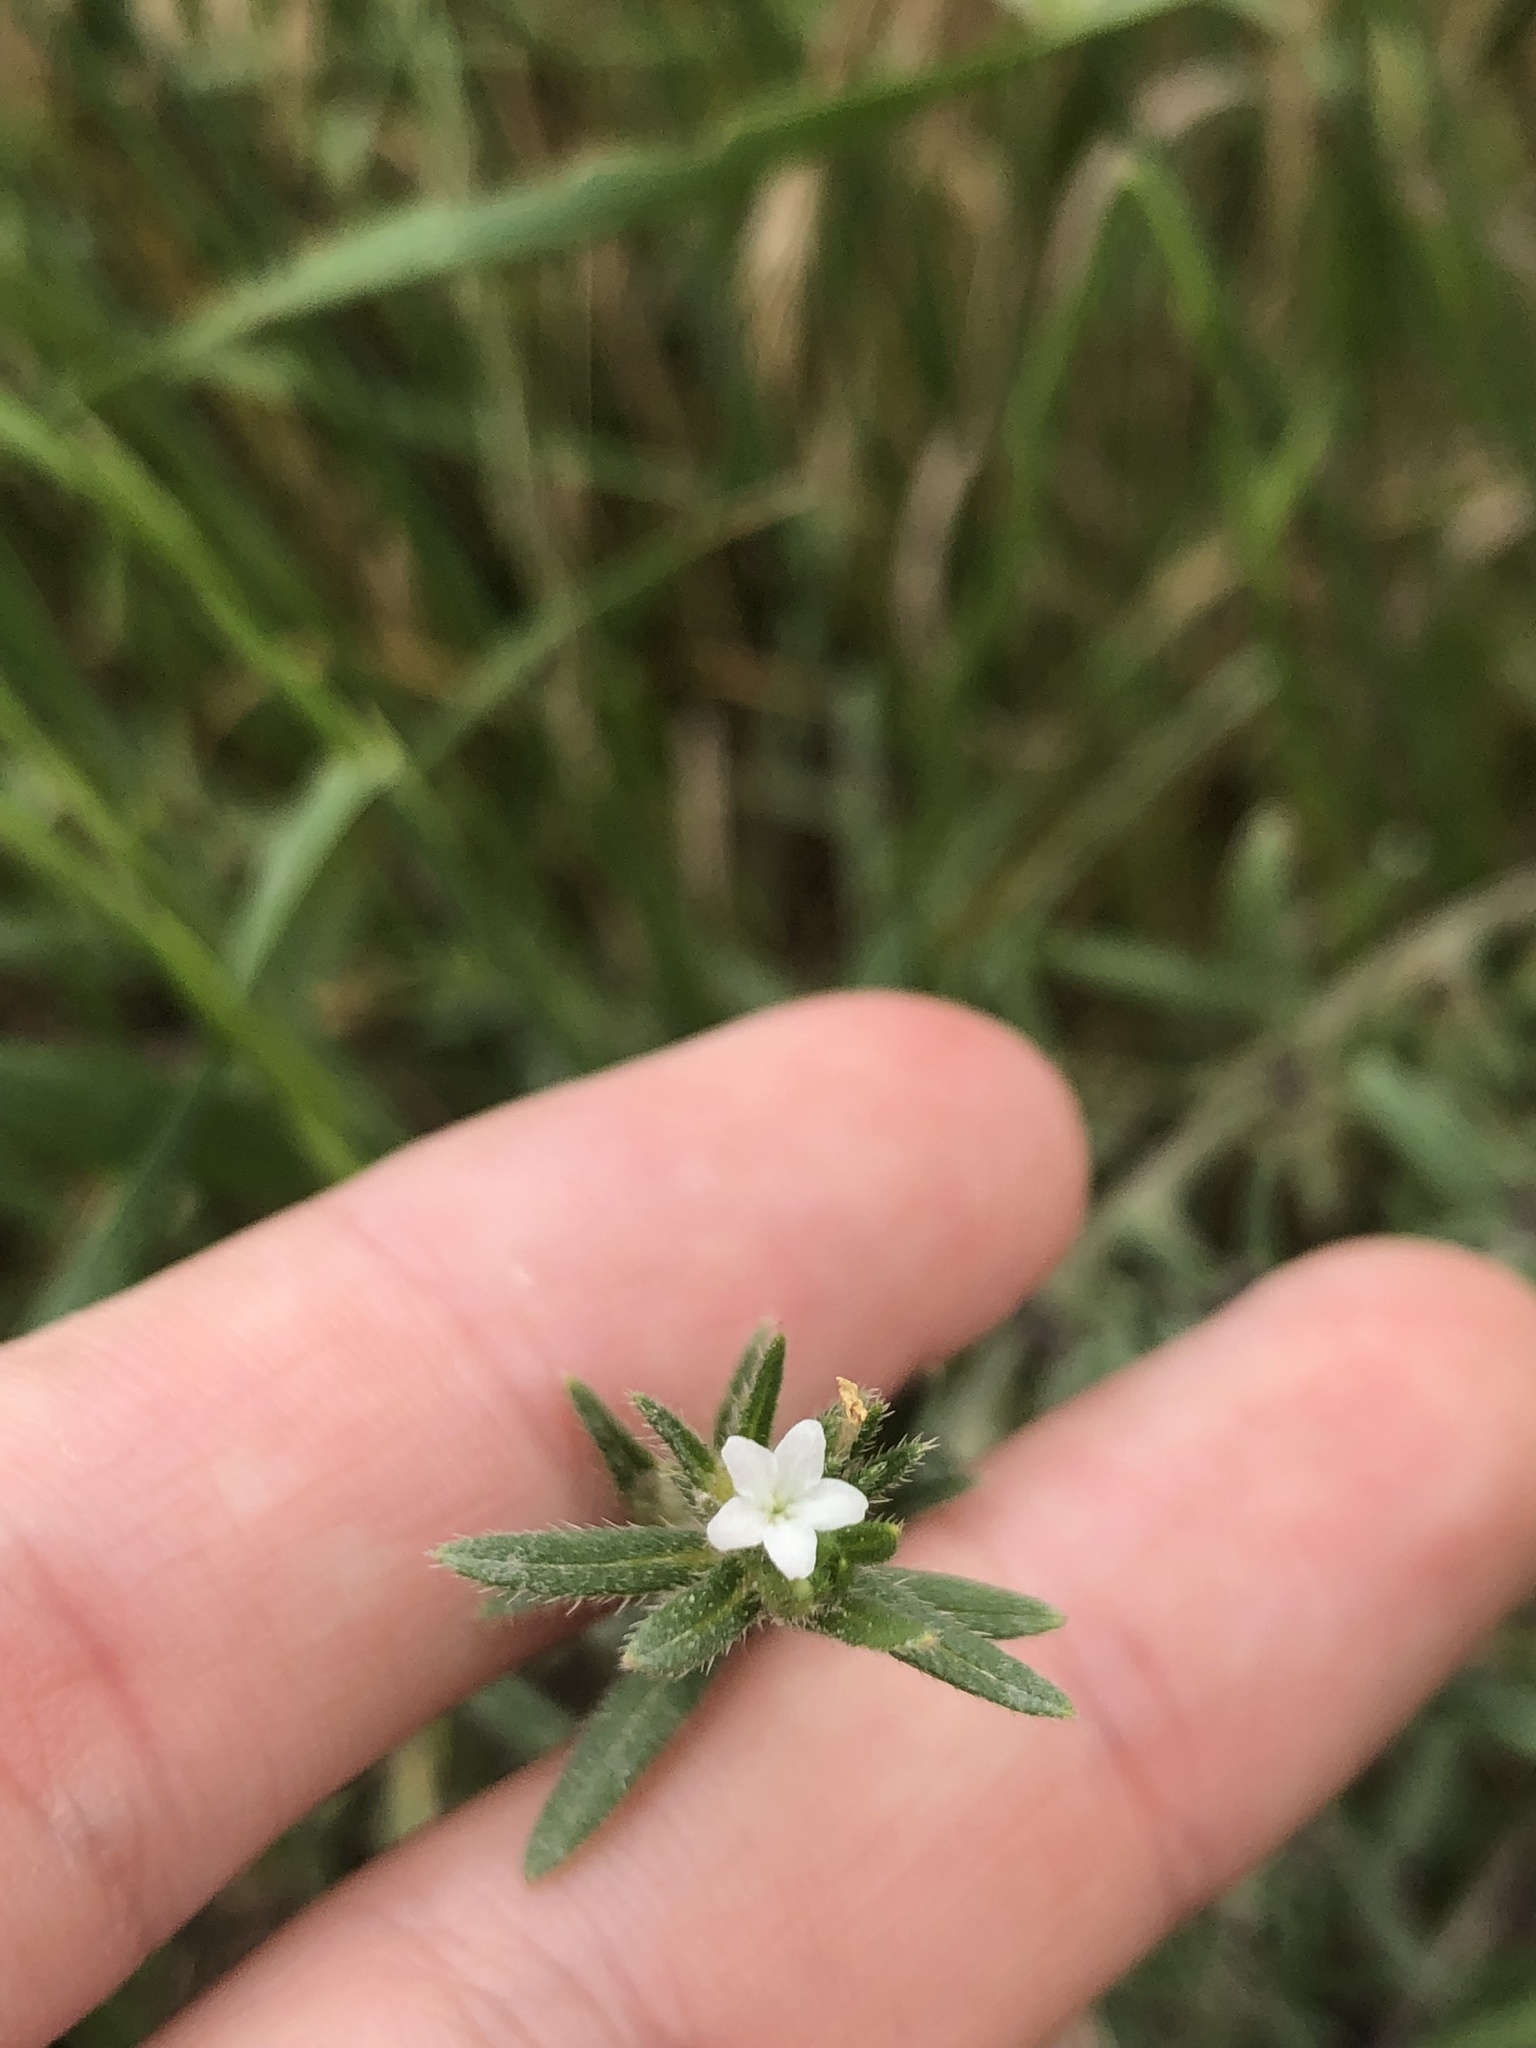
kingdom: Plantae
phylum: Tracheophyta
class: Magnoliopsida
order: Boraginales
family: Boraginaceae
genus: Buglossoides
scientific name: Buglossoides arvensis
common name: Corn gromwell
